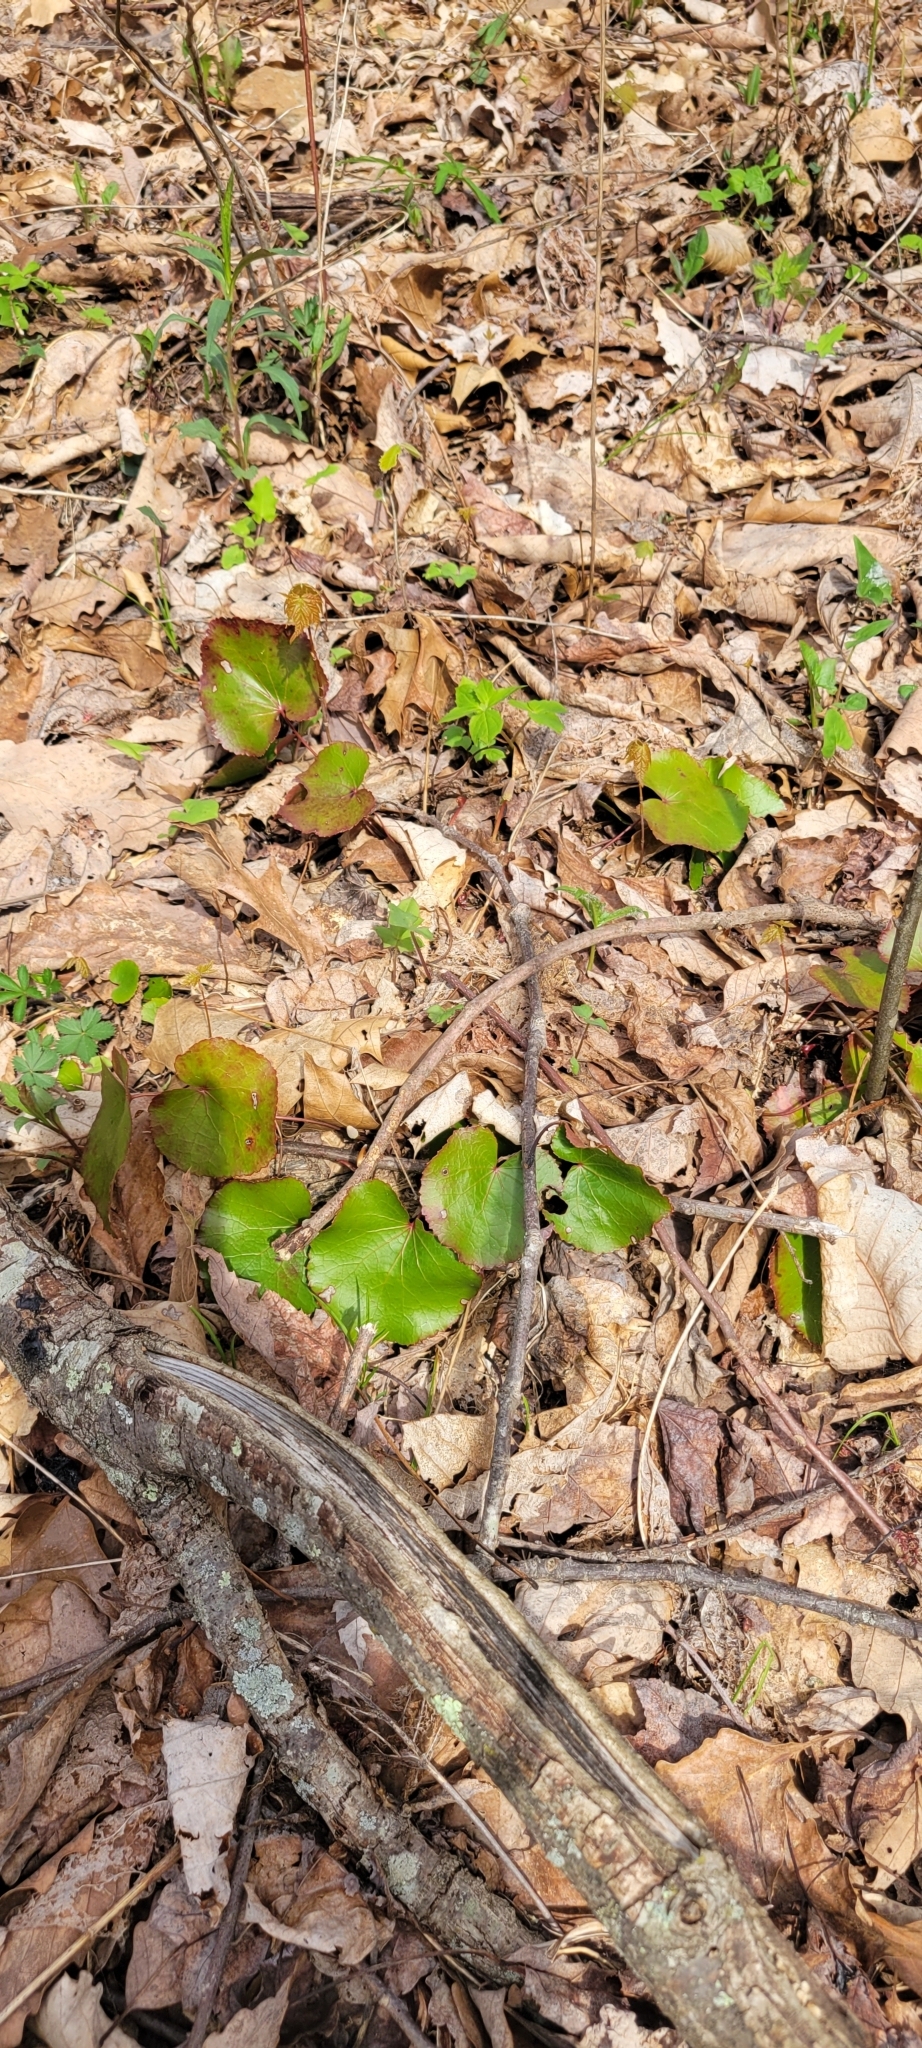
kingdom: Plantae
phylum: Tracheophyta
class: Magnoliopsida
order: Ericales
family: Diapensiaceae
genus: Galax
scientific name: Galax urceolata
